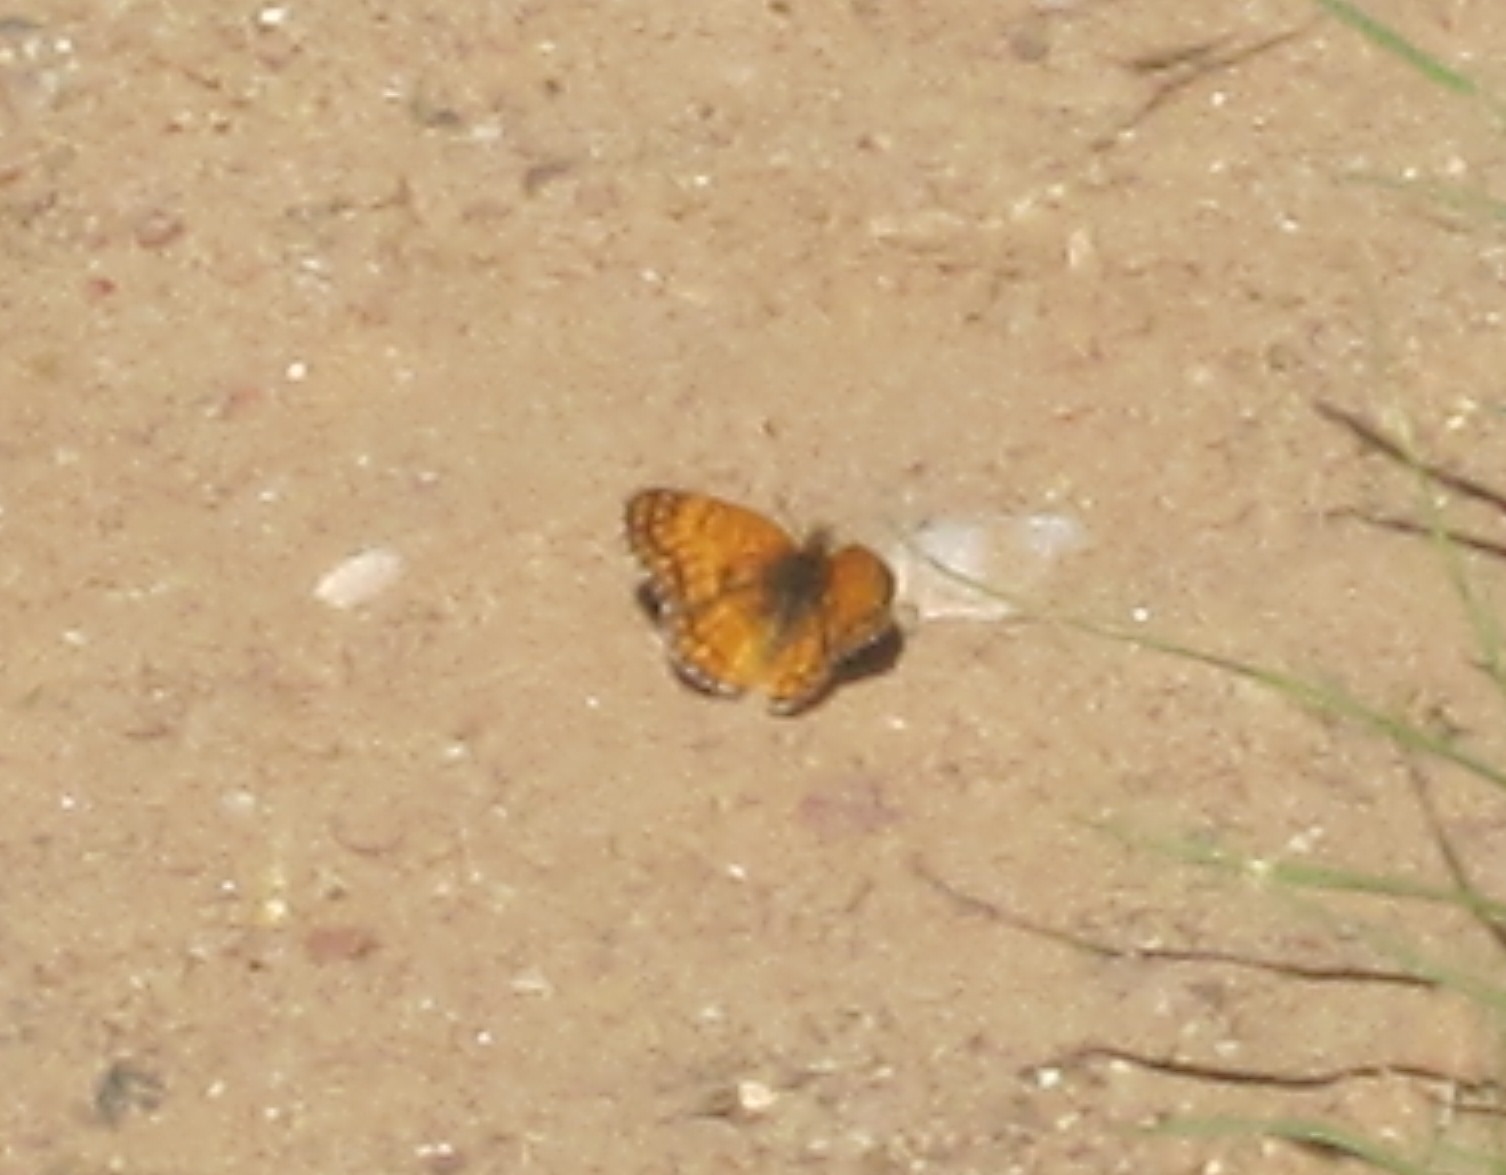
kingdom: Animalia
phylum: Arthropoda
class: Insecta
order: Lepidoptera
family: Nymphalidae
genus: Chlosyne
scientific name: Chlosyne acastus
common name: Sagebrush checkerspot
